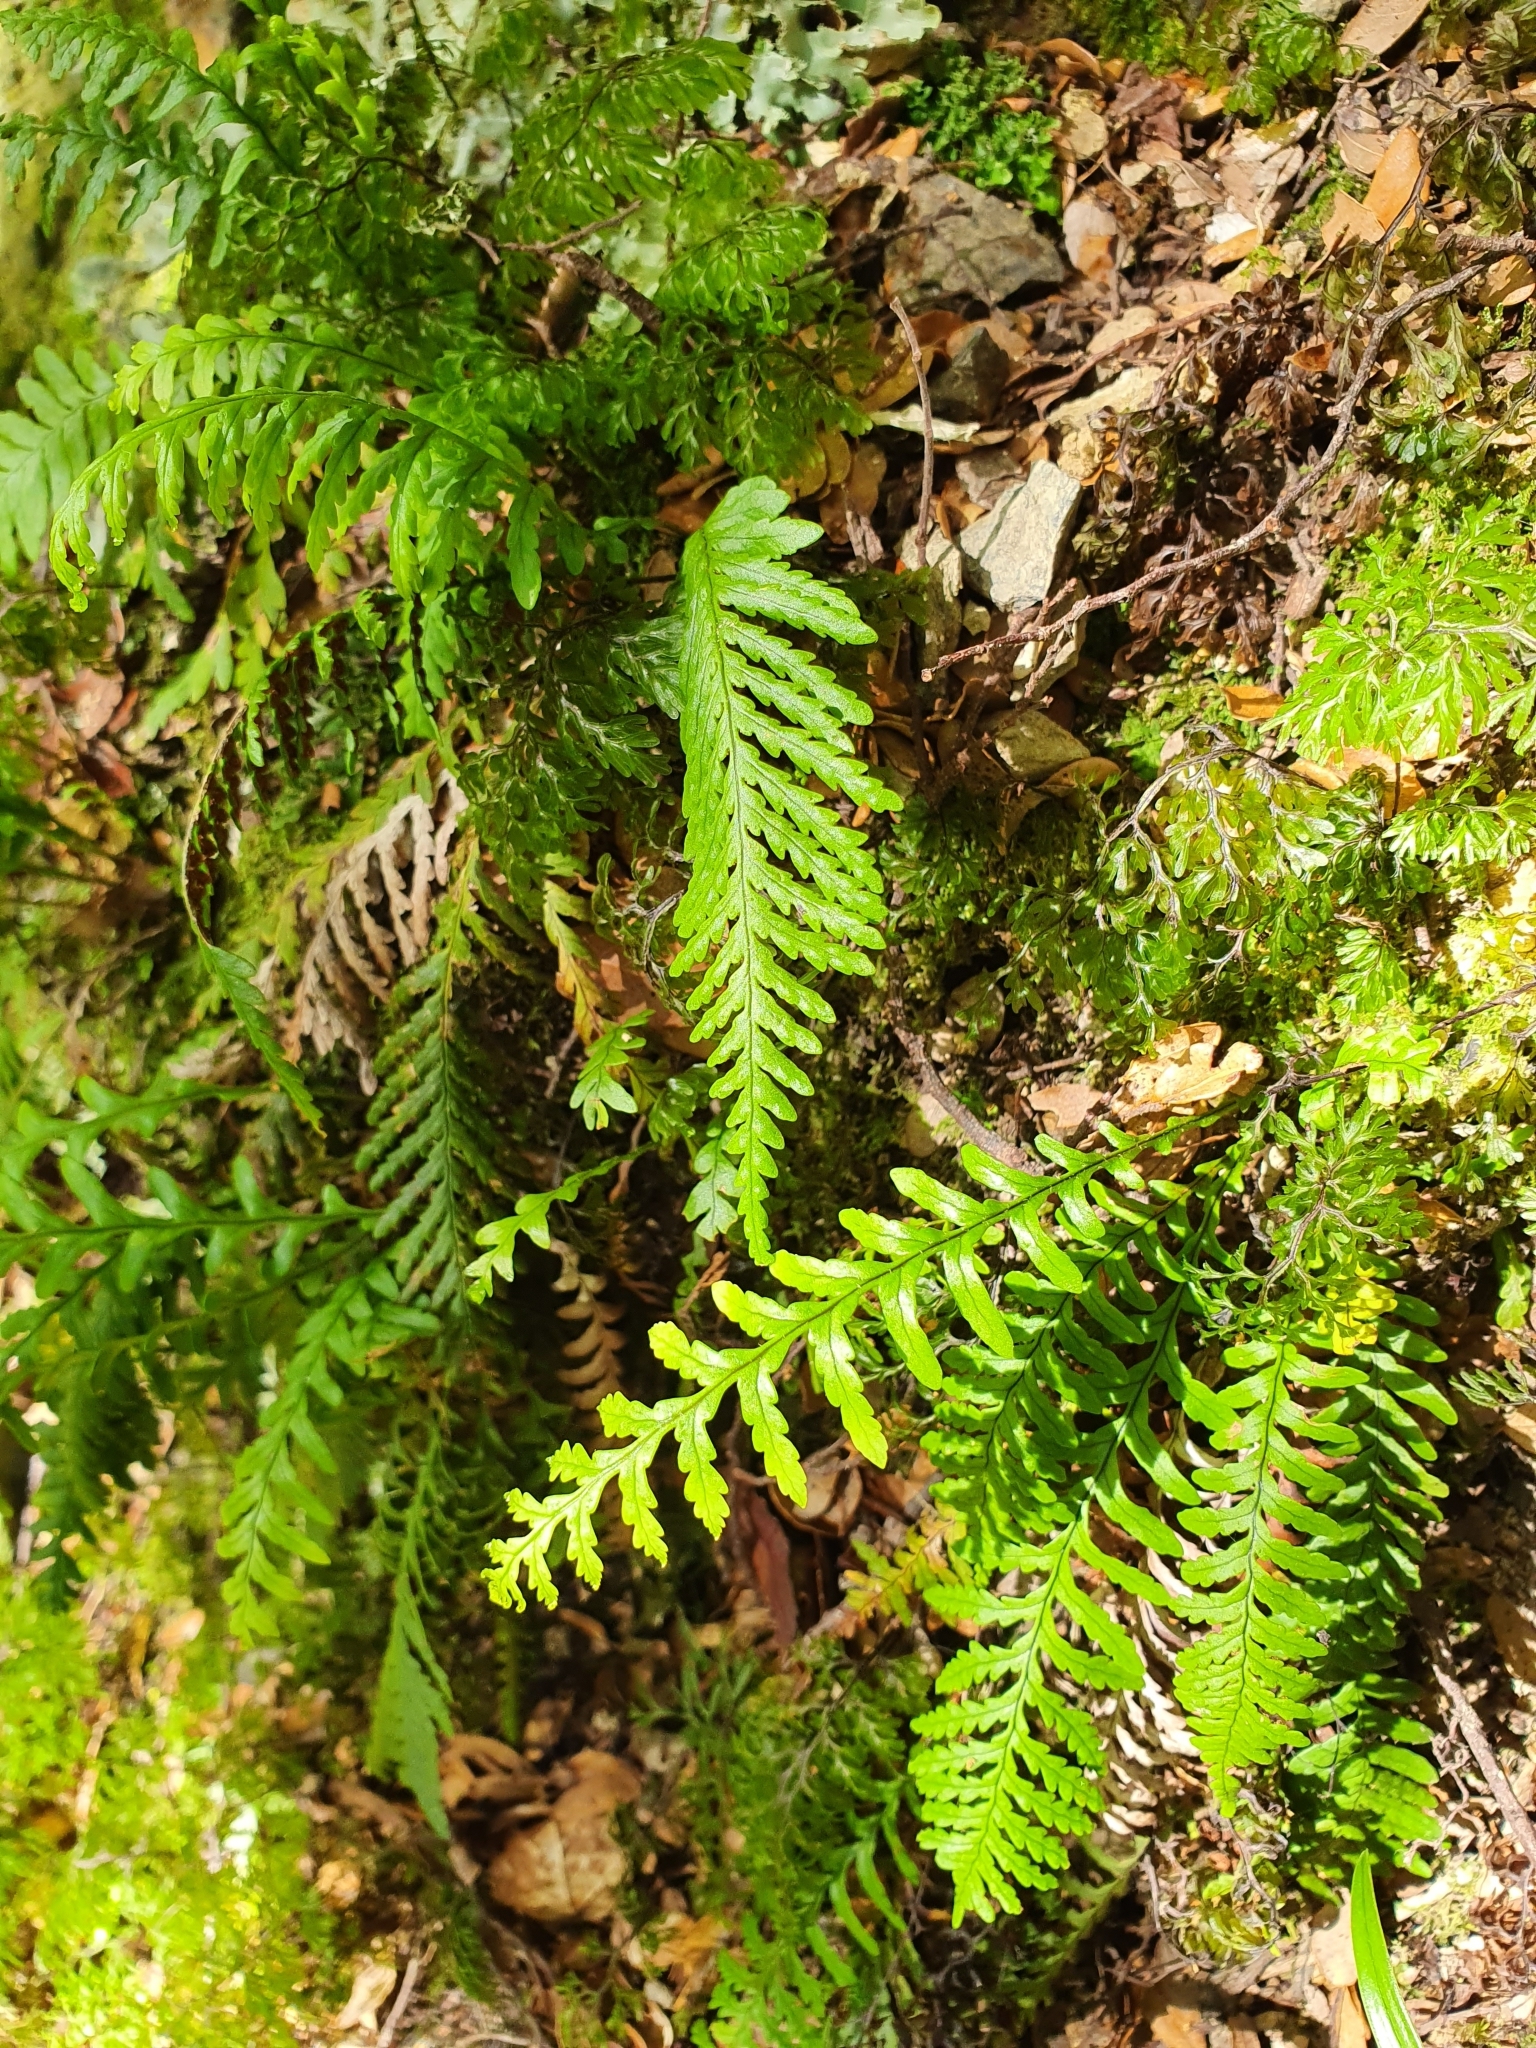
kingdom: Plantae
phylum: Tracheophyta
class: Polypodiopsida
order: Polypodiales
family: Polypodiaceae
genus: Notogrammitis
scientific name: Notogrammitis heterophylla
